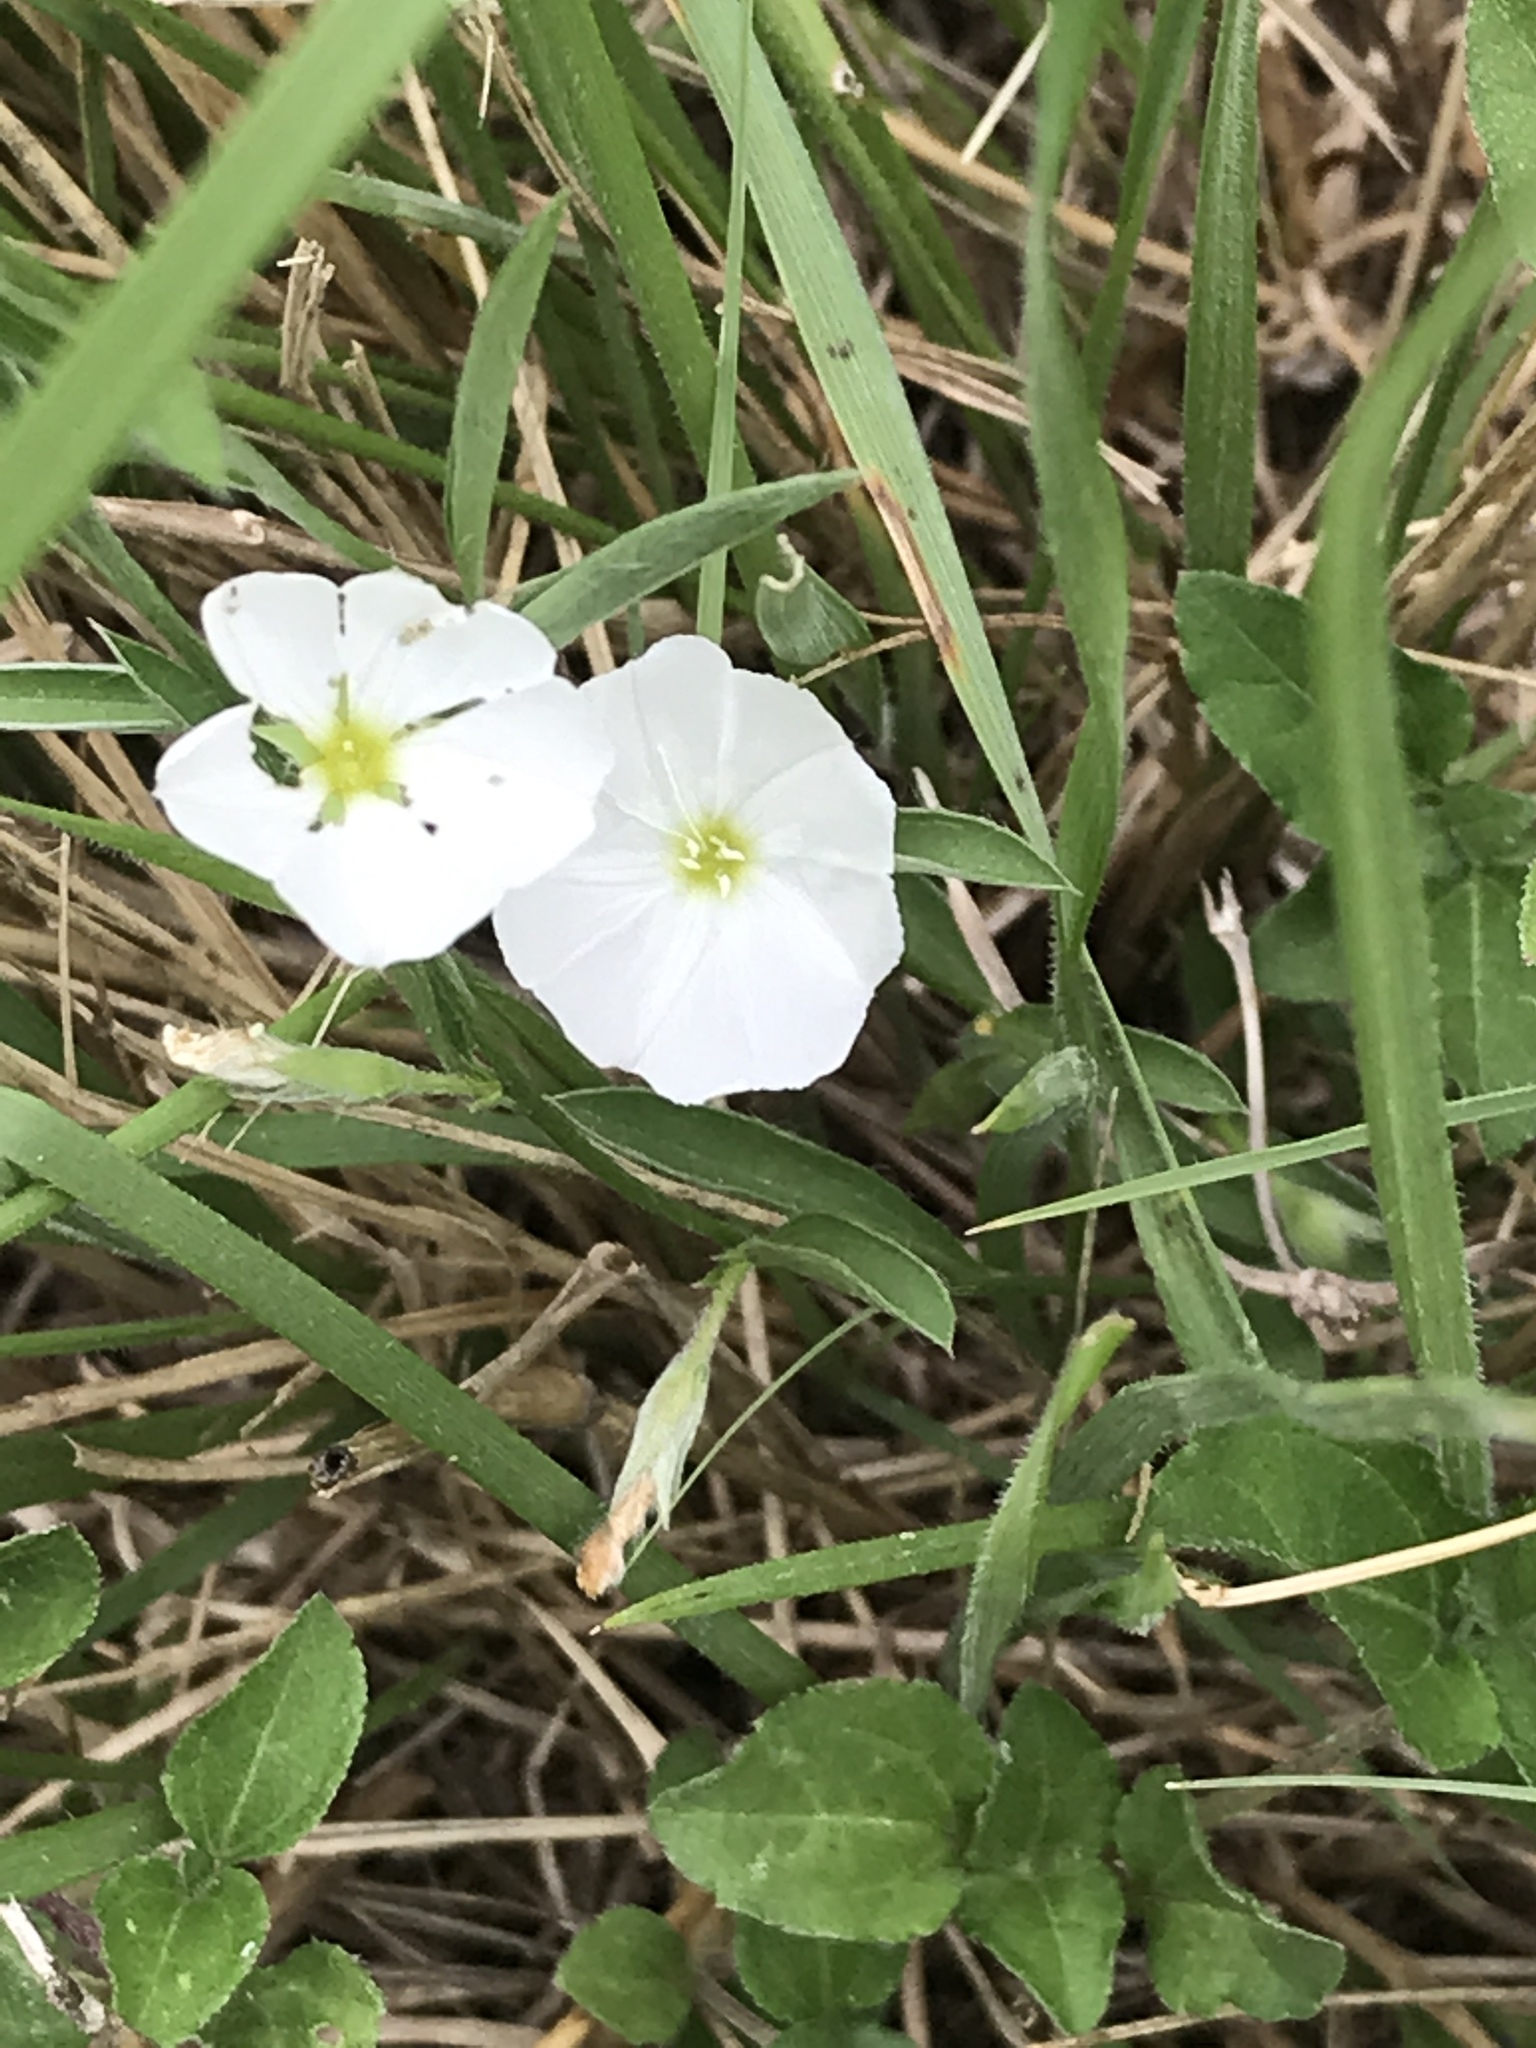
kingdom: Plantae
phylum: Tracheophyta
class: Magnoliopsida
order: Solanales
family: Convolvulaceae
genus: Evolvulus
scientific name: Evolvulus sericeus
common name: Blue dots
